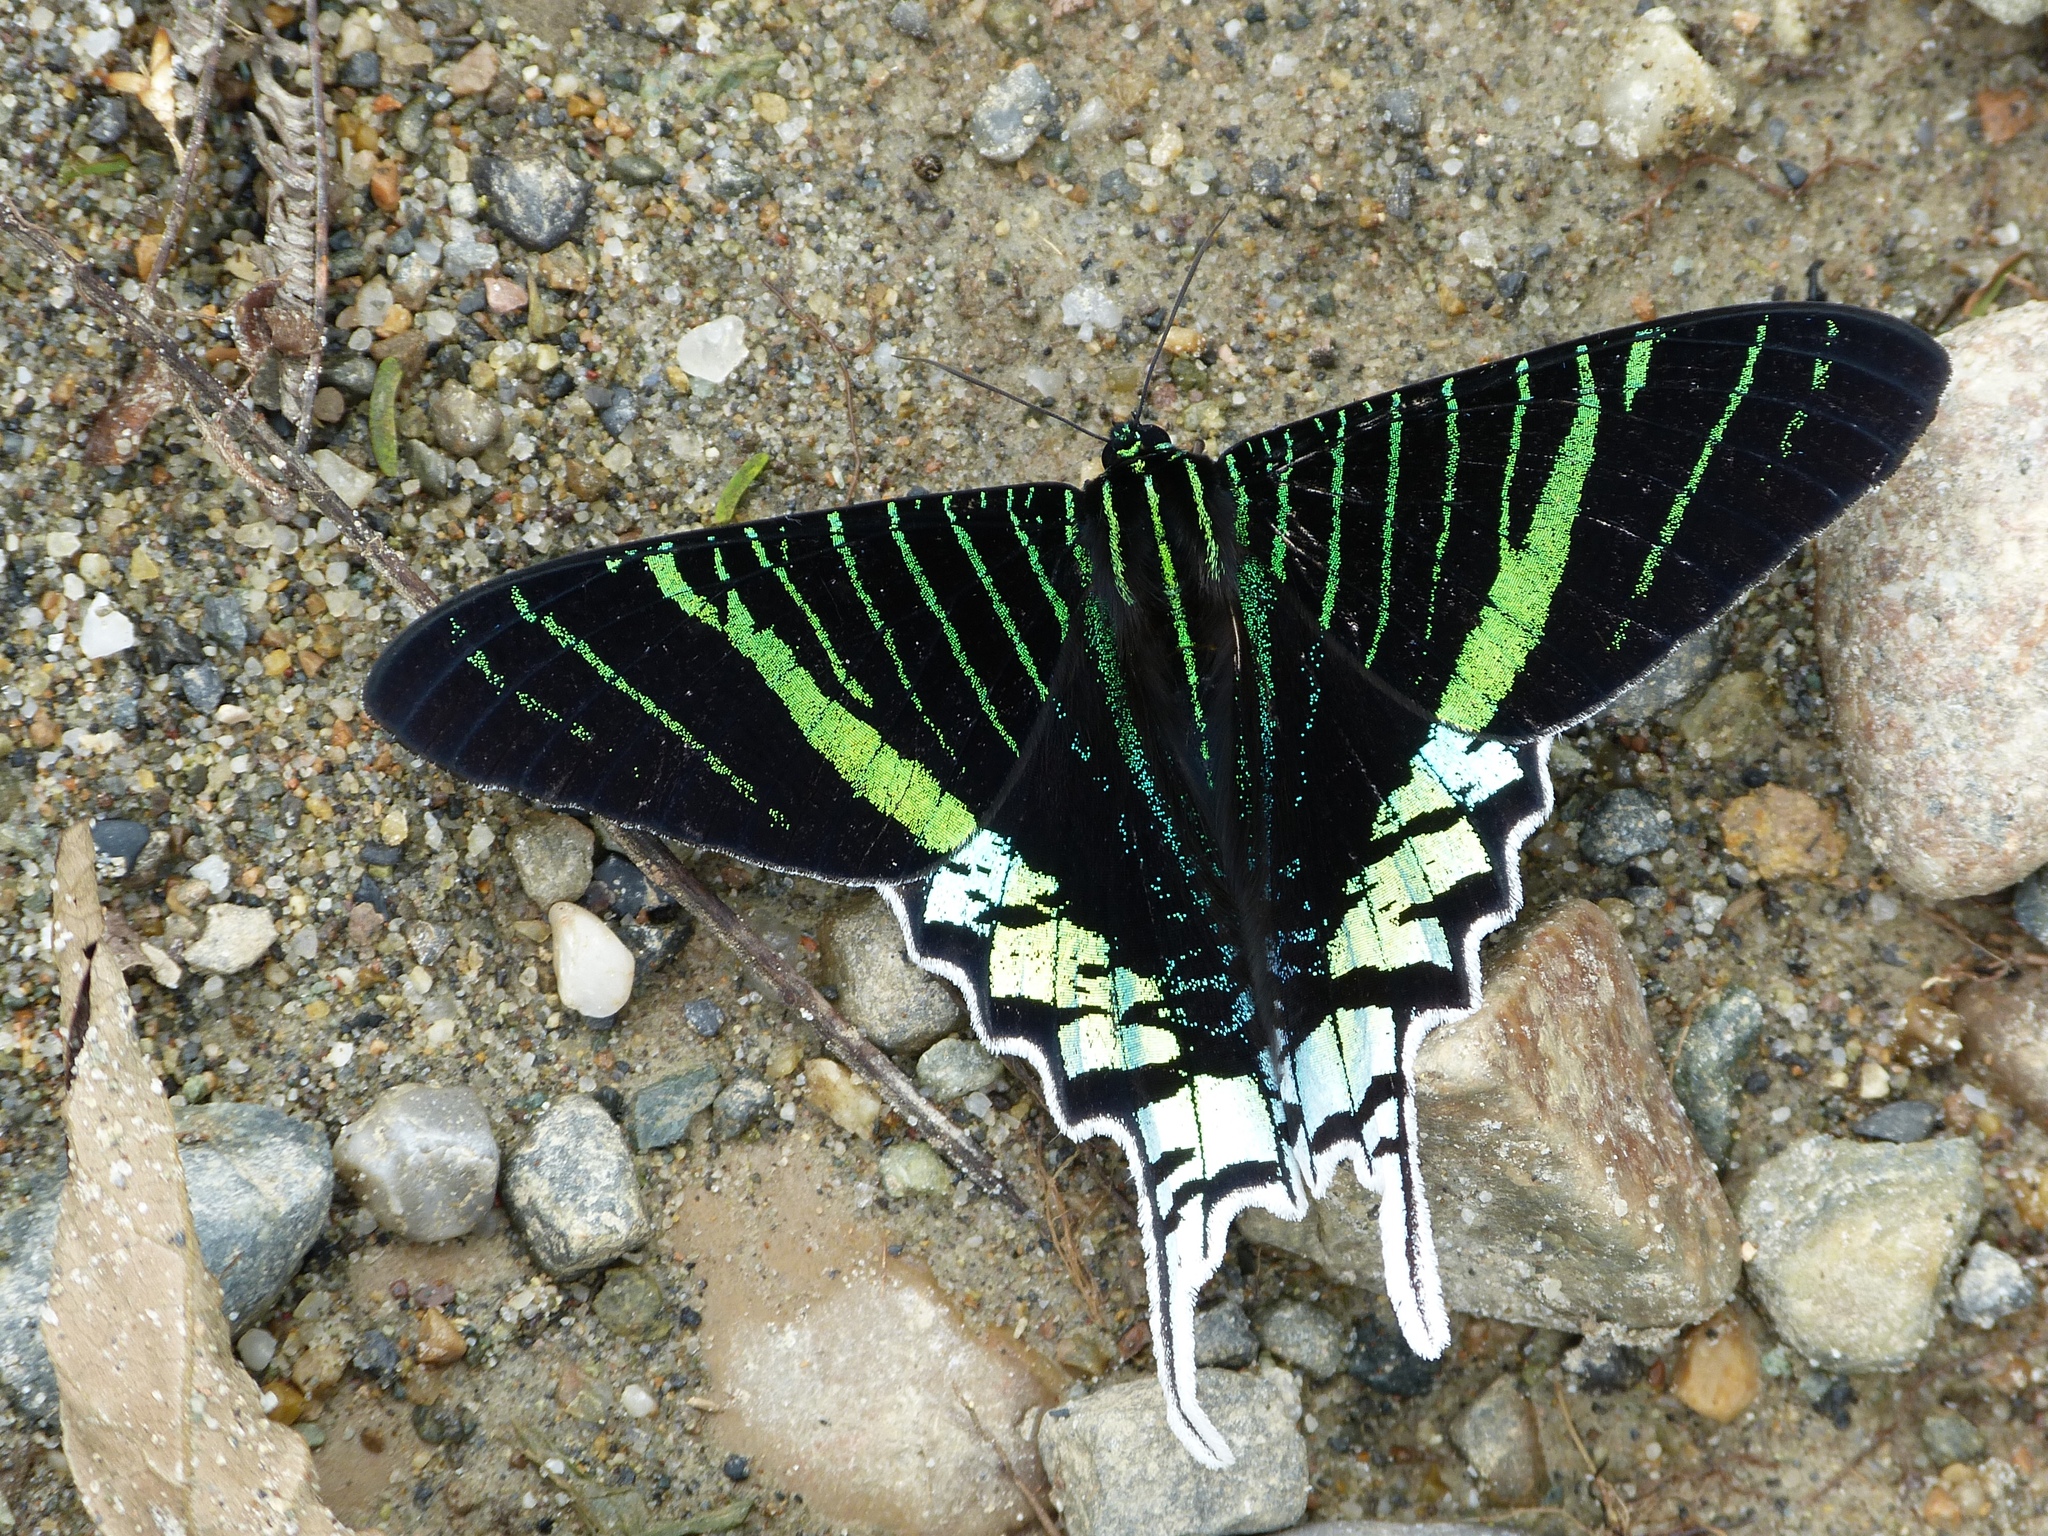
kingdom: Animalia
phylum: Arthropoda
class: Insecta
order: Lepidoptera
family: Uraniidae
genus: Urania
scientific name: Urania leilus
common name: Peacock moth
